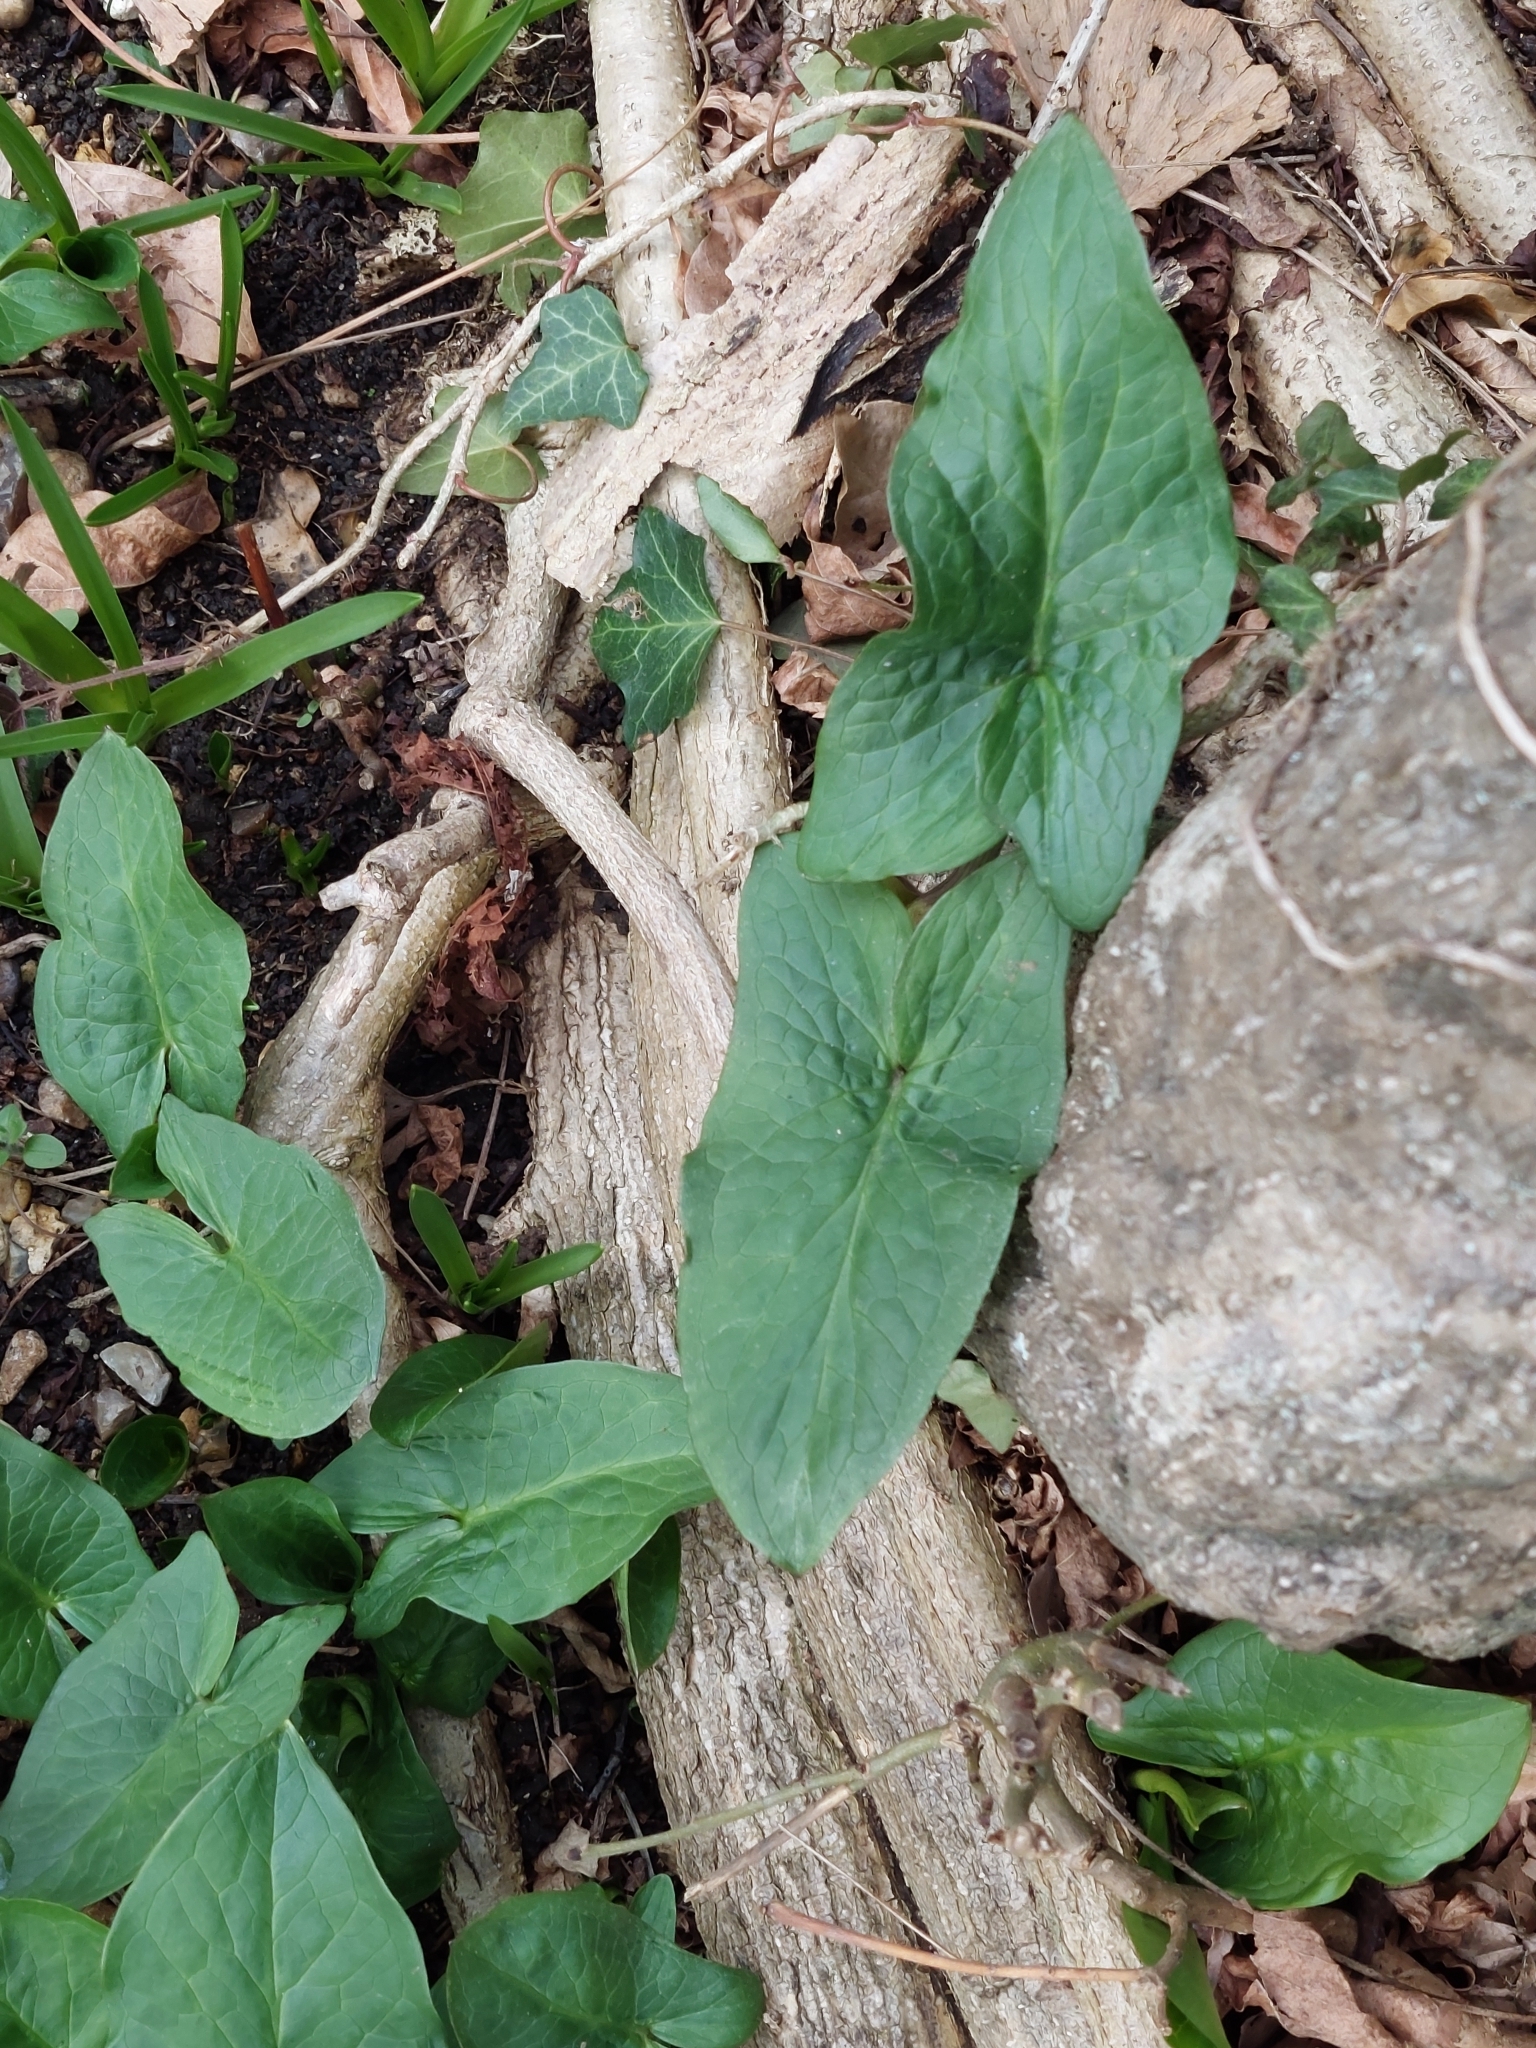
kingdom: Plantae
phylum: Tracheophyta
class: Liliopsida
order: Alismatales
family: Araceae
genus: Arum
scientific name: Arum maculatum
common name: Lords-and-ladies
